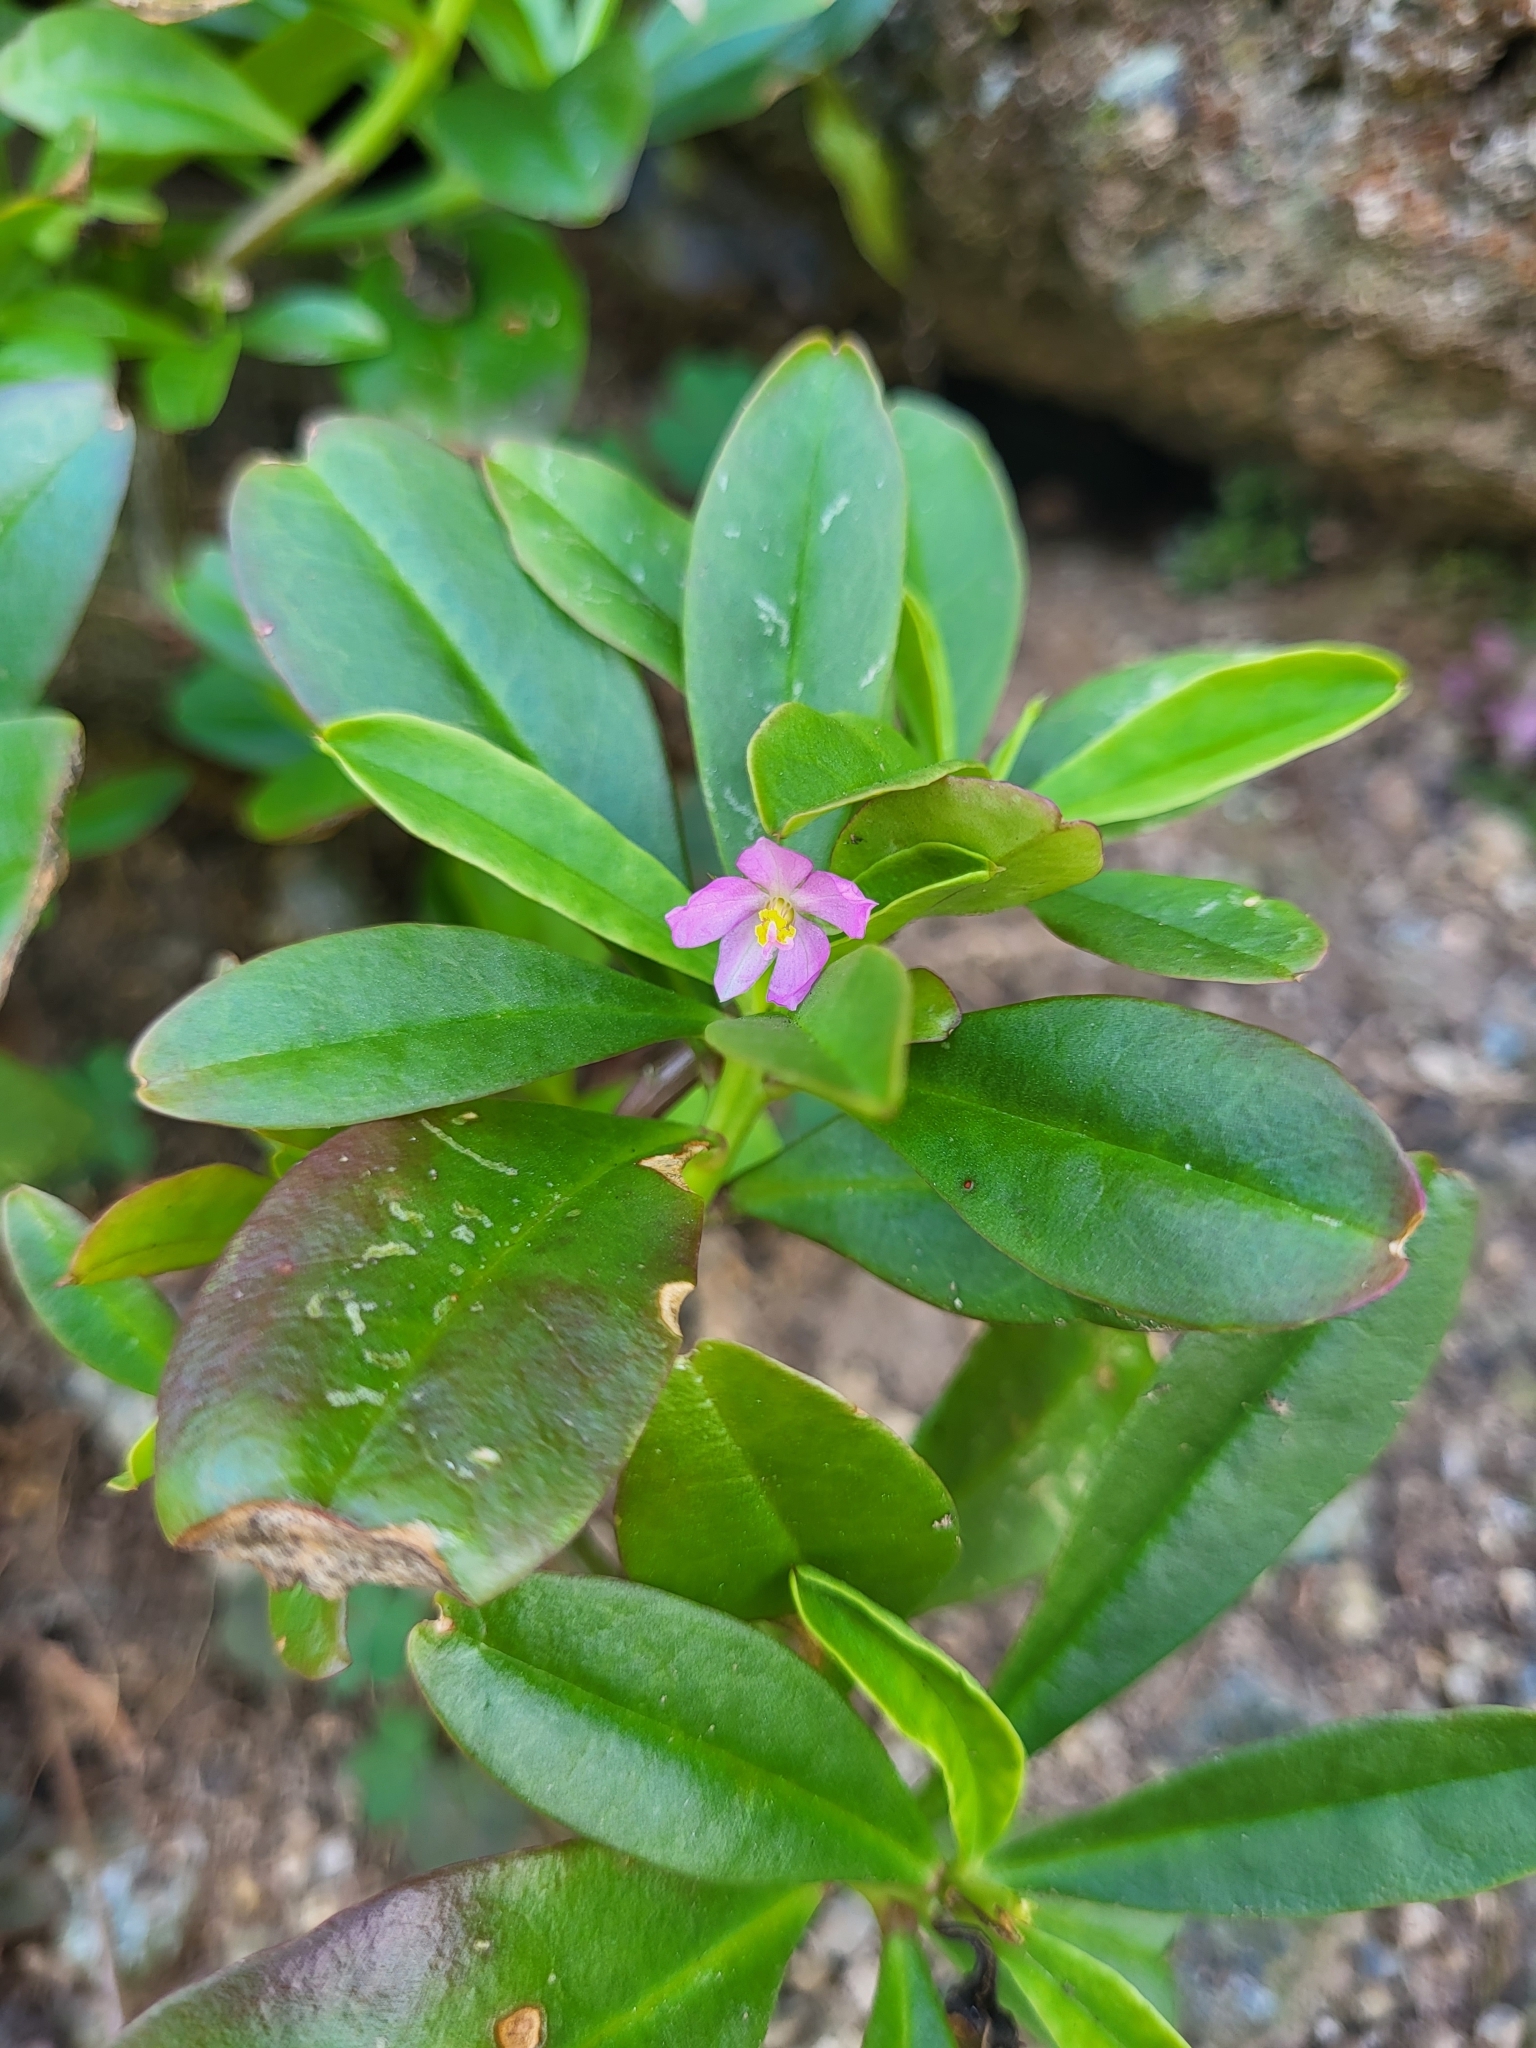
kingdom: Plantae
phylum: Tracheophyta
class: Magnoliopsida
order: Caryophyllales
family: Talinaceae
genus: Talinum
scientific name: Talinum fruticosum
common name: Verdolaga-francesa
